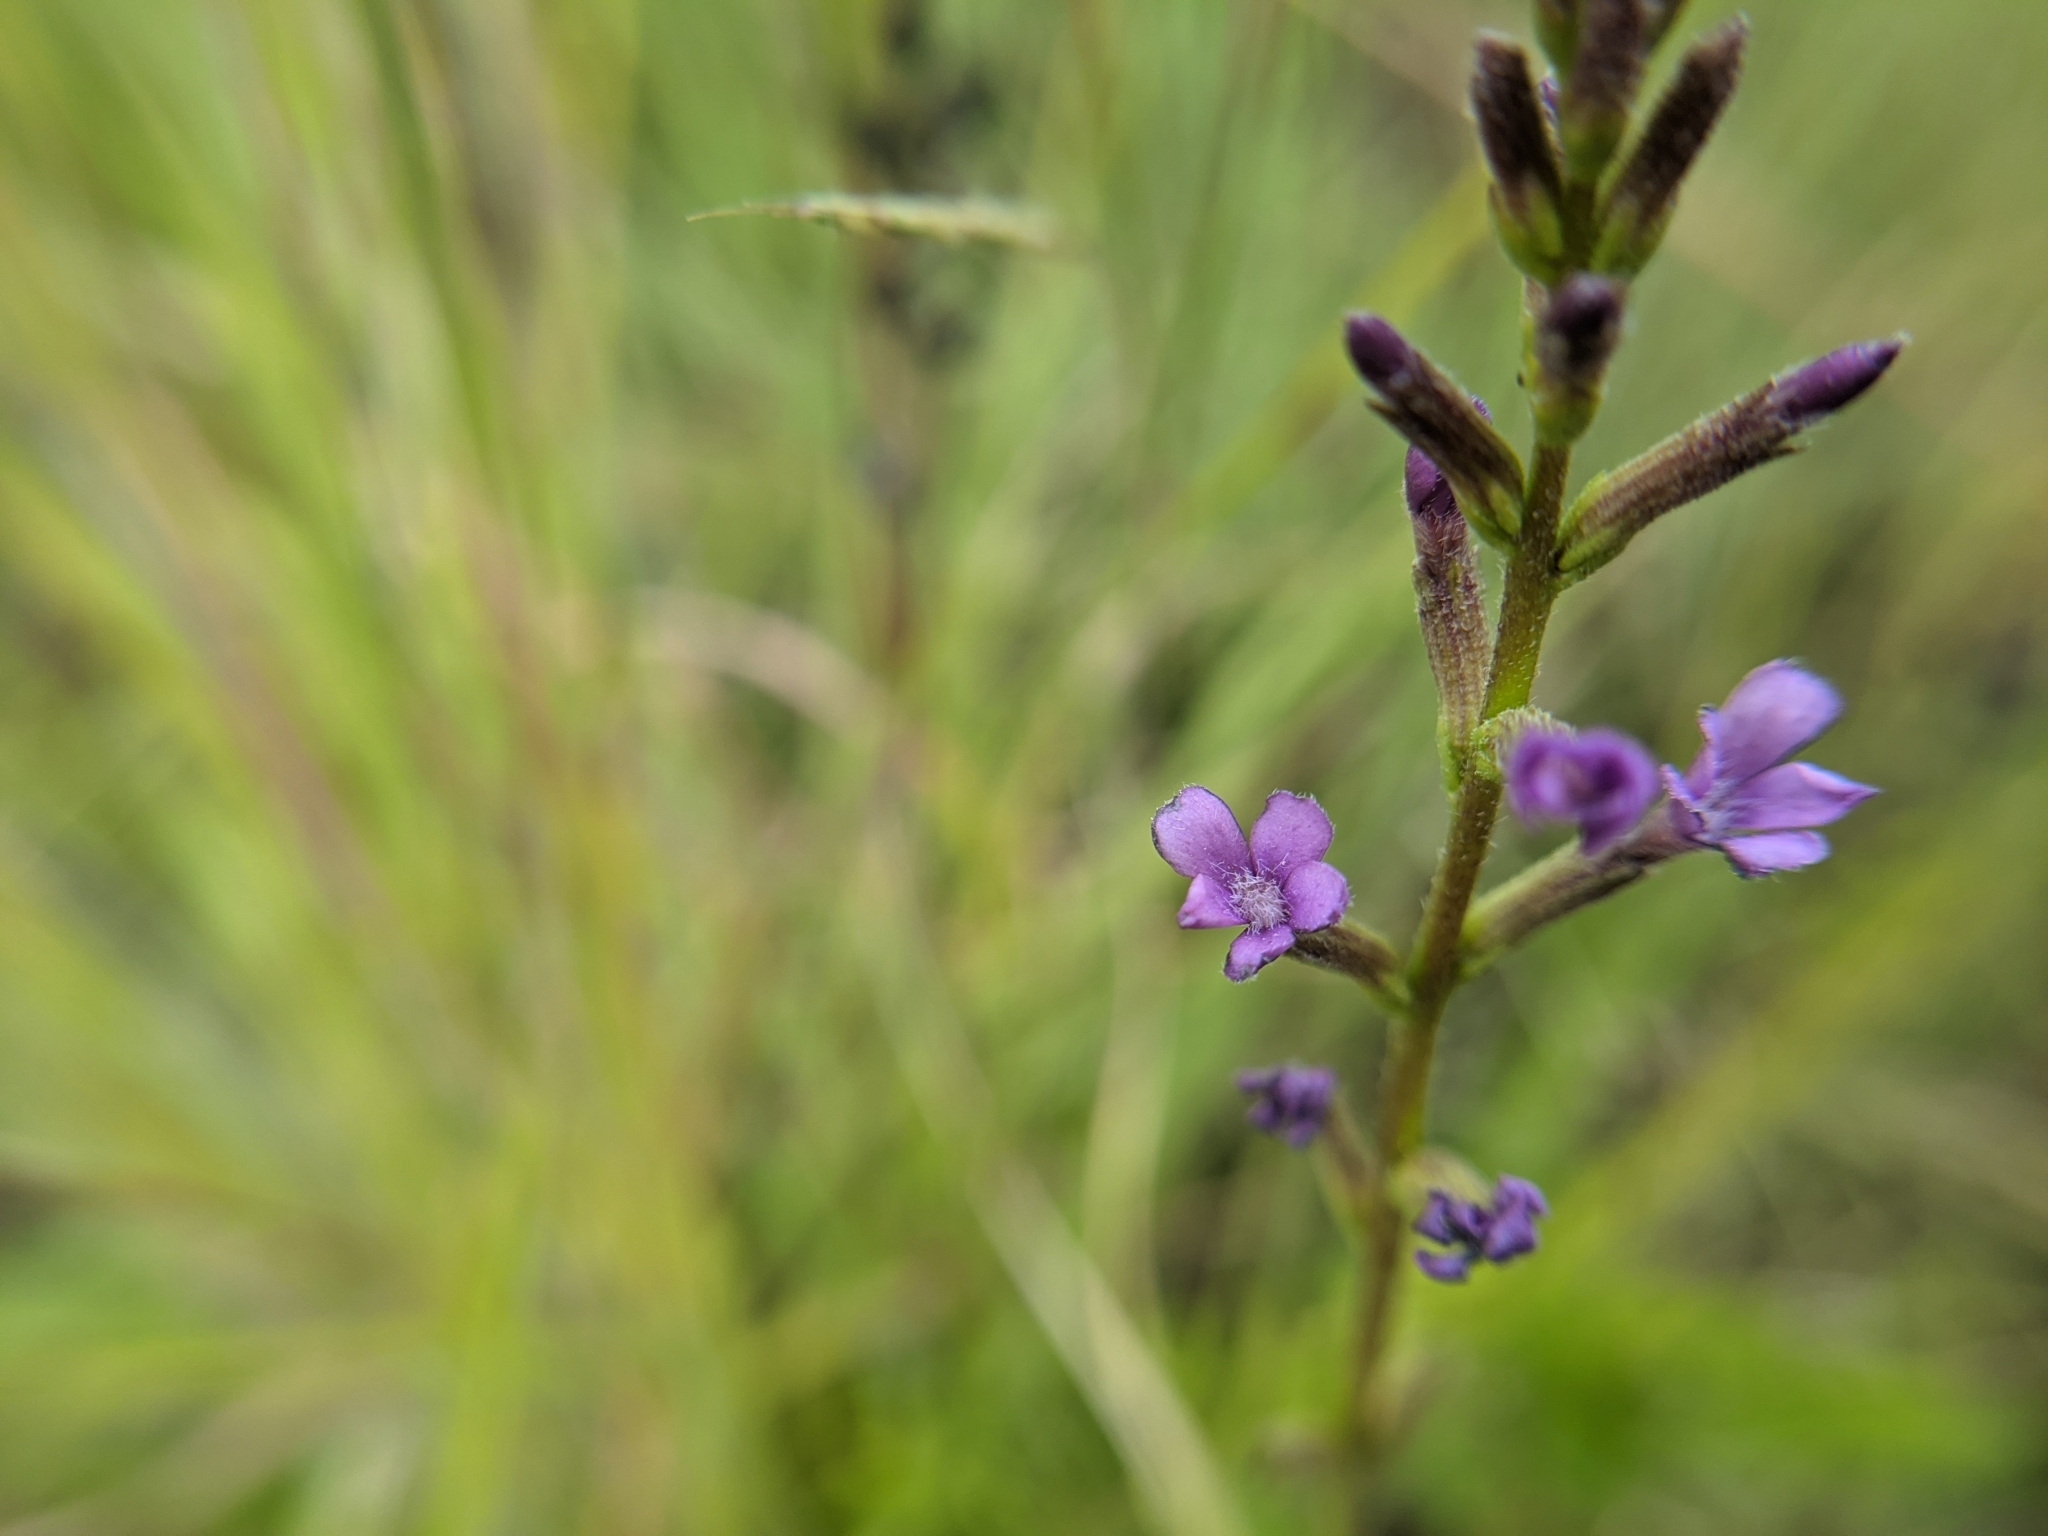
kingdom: Plantae
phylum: Tracheophyta
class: Magnoliopsida
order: Lamiales
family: Orobanchaceae
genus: Buchnera
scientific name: Buchnera floridana
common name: Florida bluehearts
